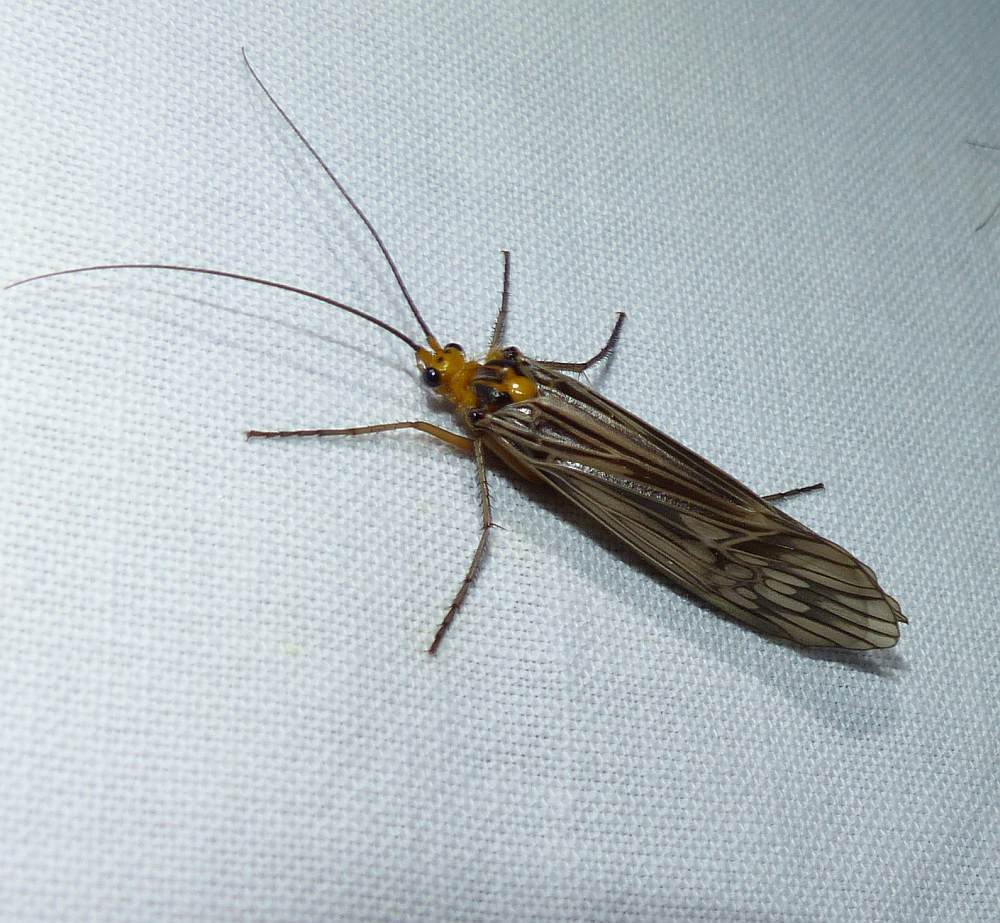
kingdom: Animalia
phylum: Arthropoda
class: Insecta
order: Trichoptera
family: Limnephilidae
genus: Hydatophylax
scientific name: Hydatophylax argus
